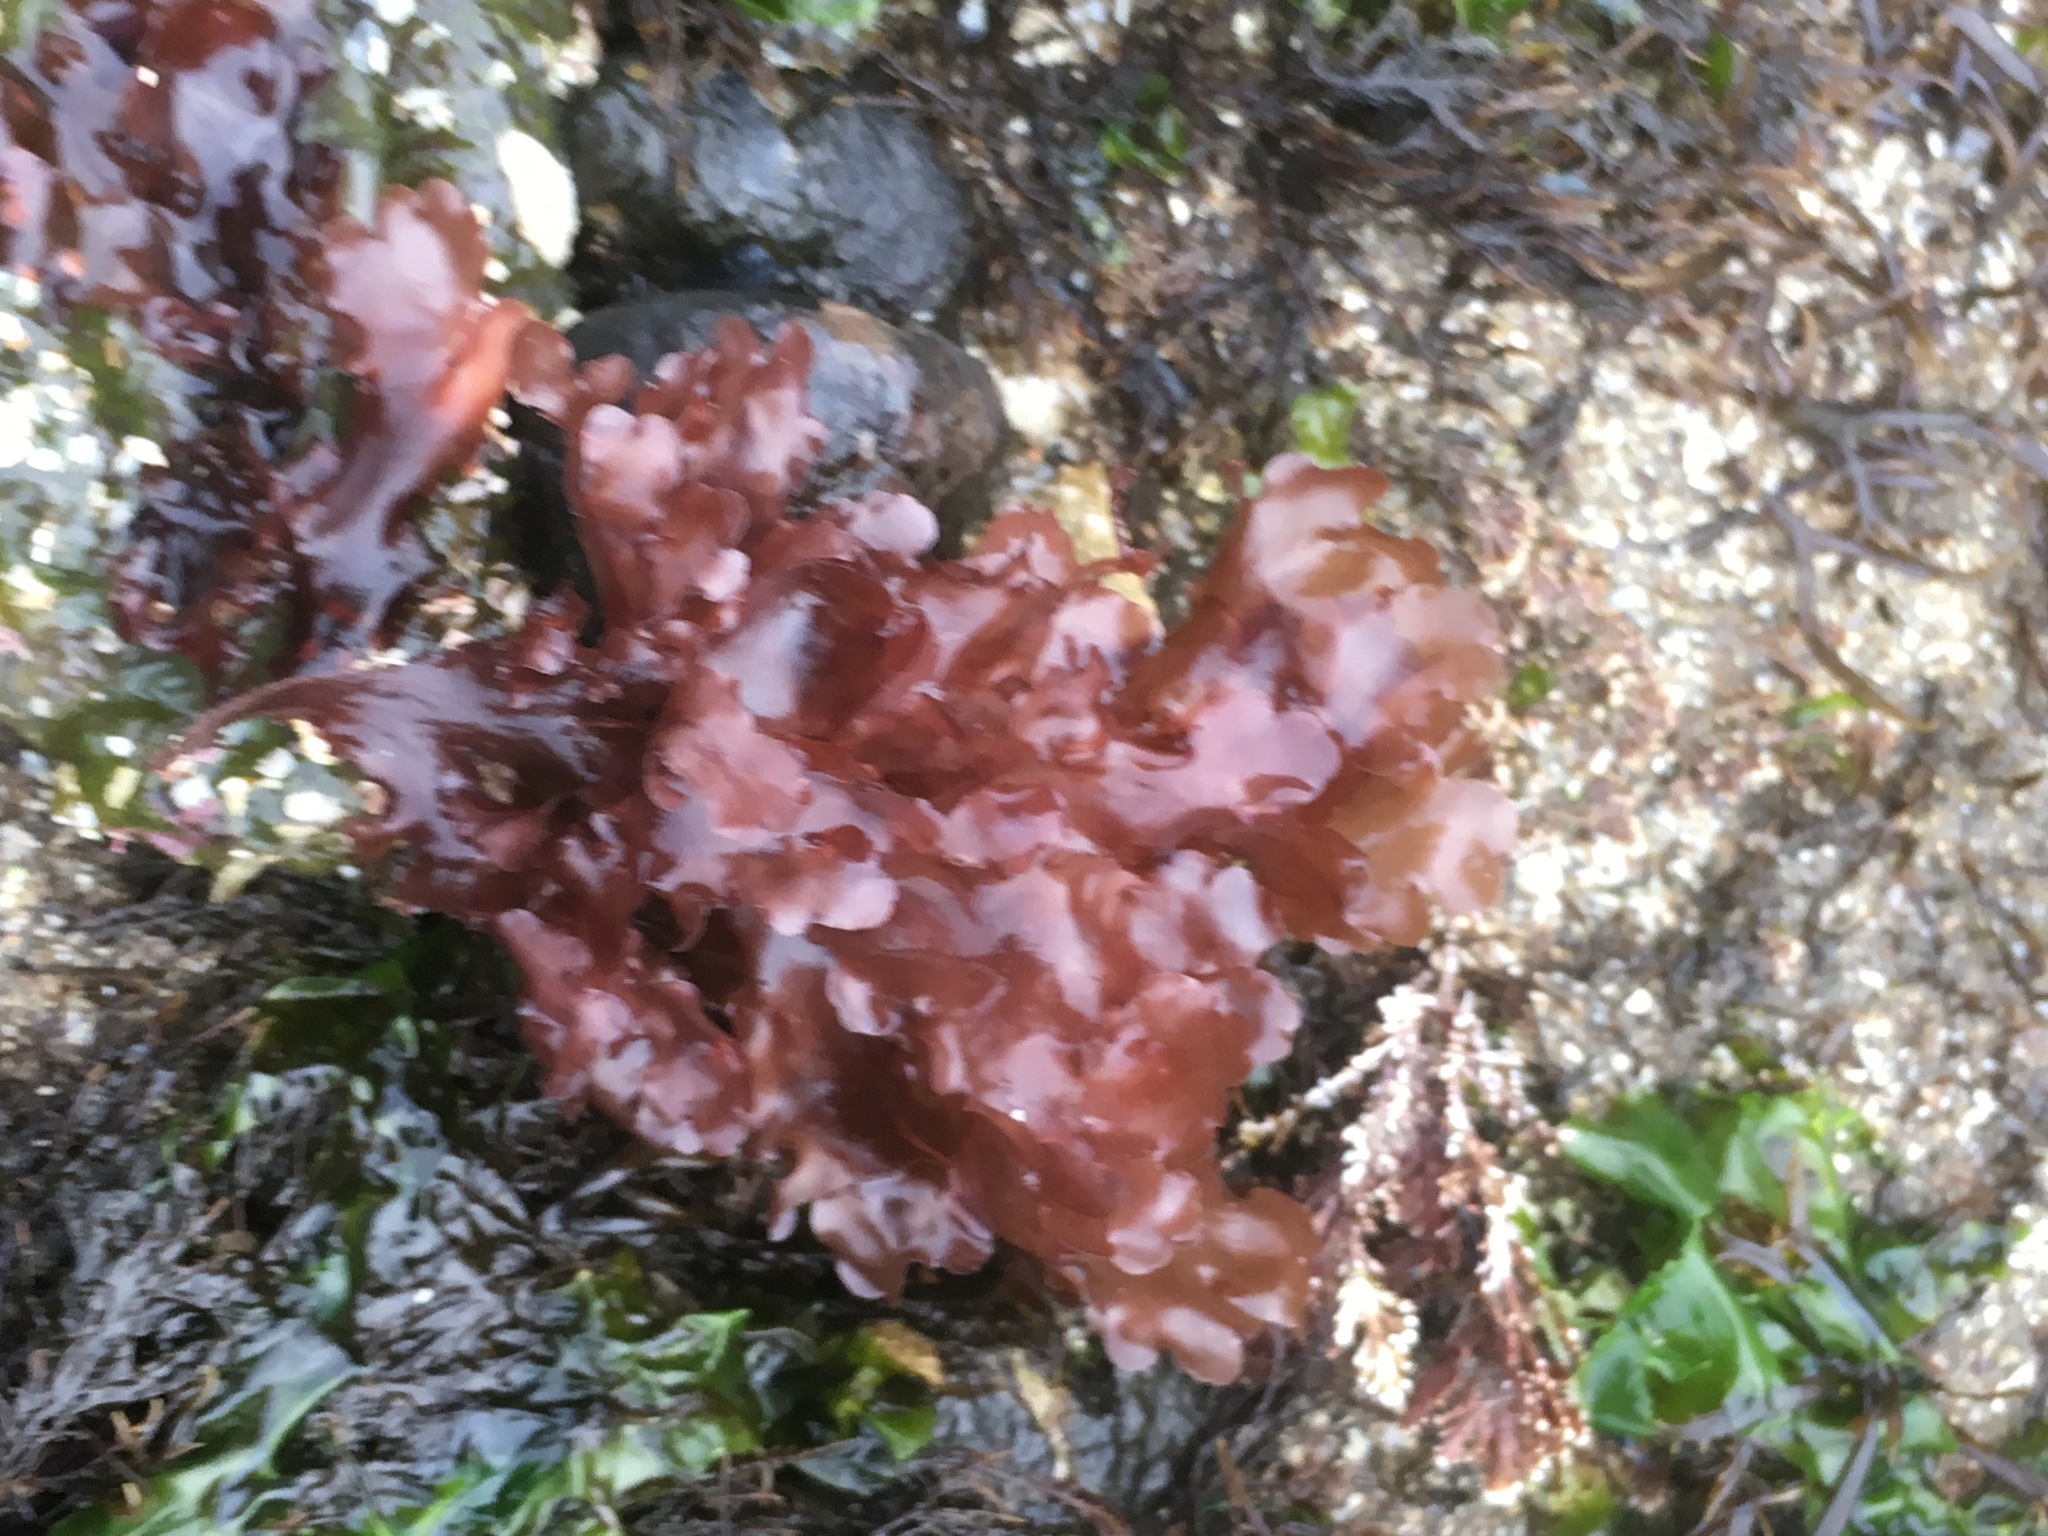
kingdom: Plantae
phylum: Rhodophyta
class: Florideophyceae
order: Ceramiales
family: Delesseriaceae
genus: Cryptopleura
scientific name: Cryptopleura ruprechtiana
